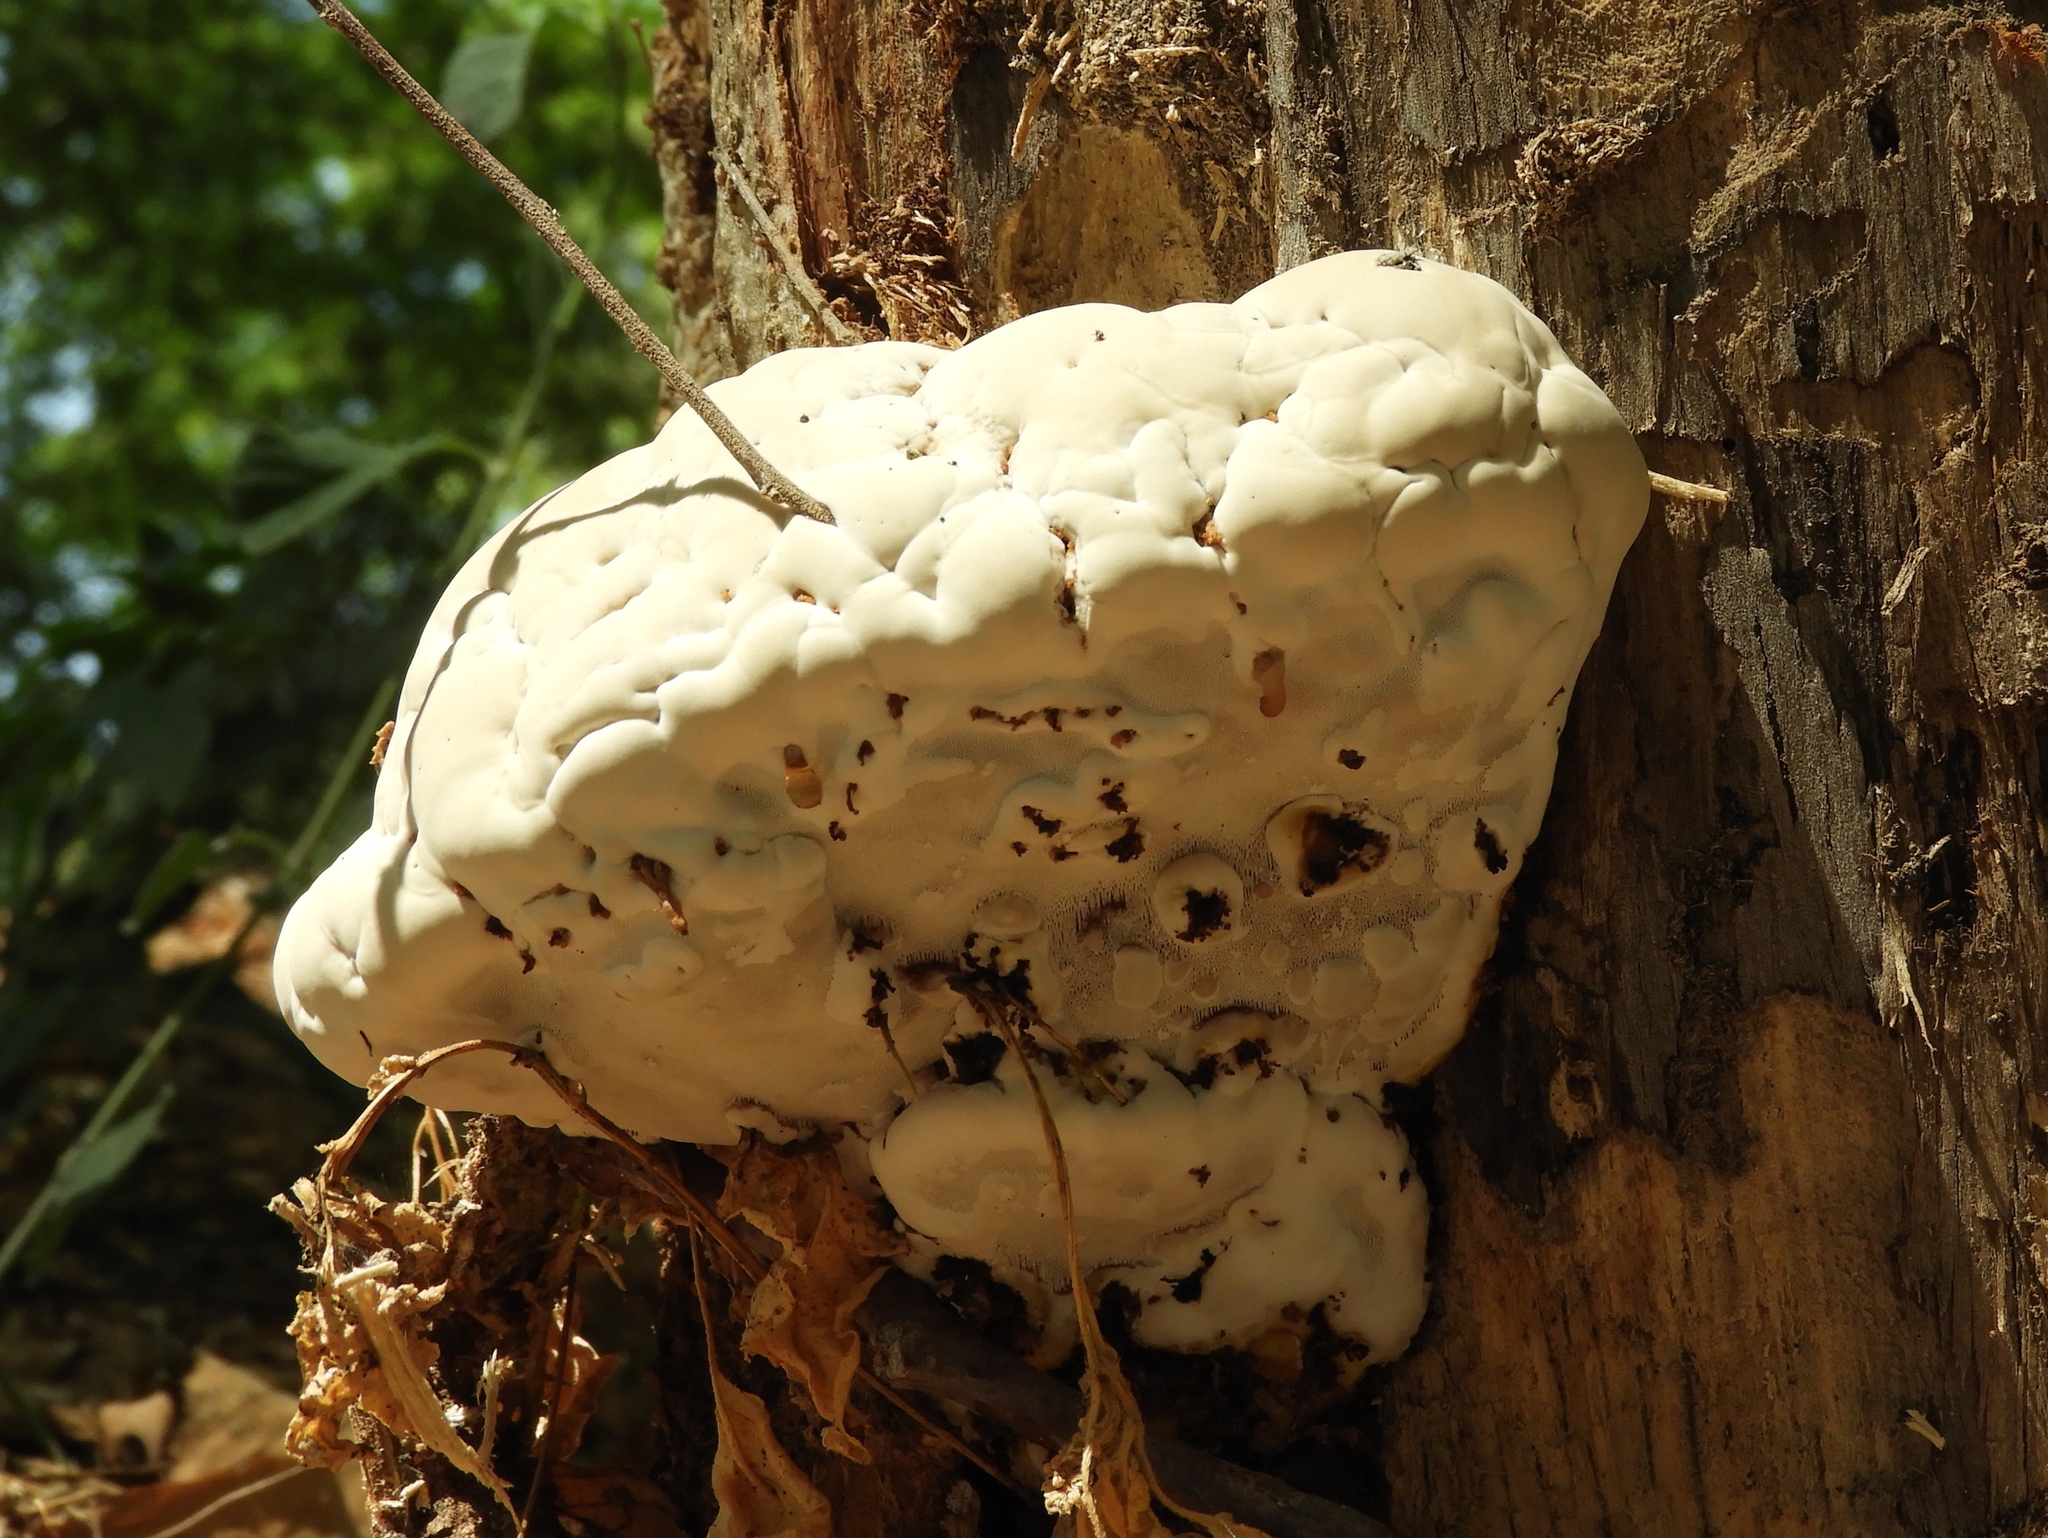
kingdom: Fungi
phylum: Basidiomycota
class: Agaricomycetes
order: Polyporales
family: Polyporaceae
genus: Ganoderma
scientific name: Ganoderma
